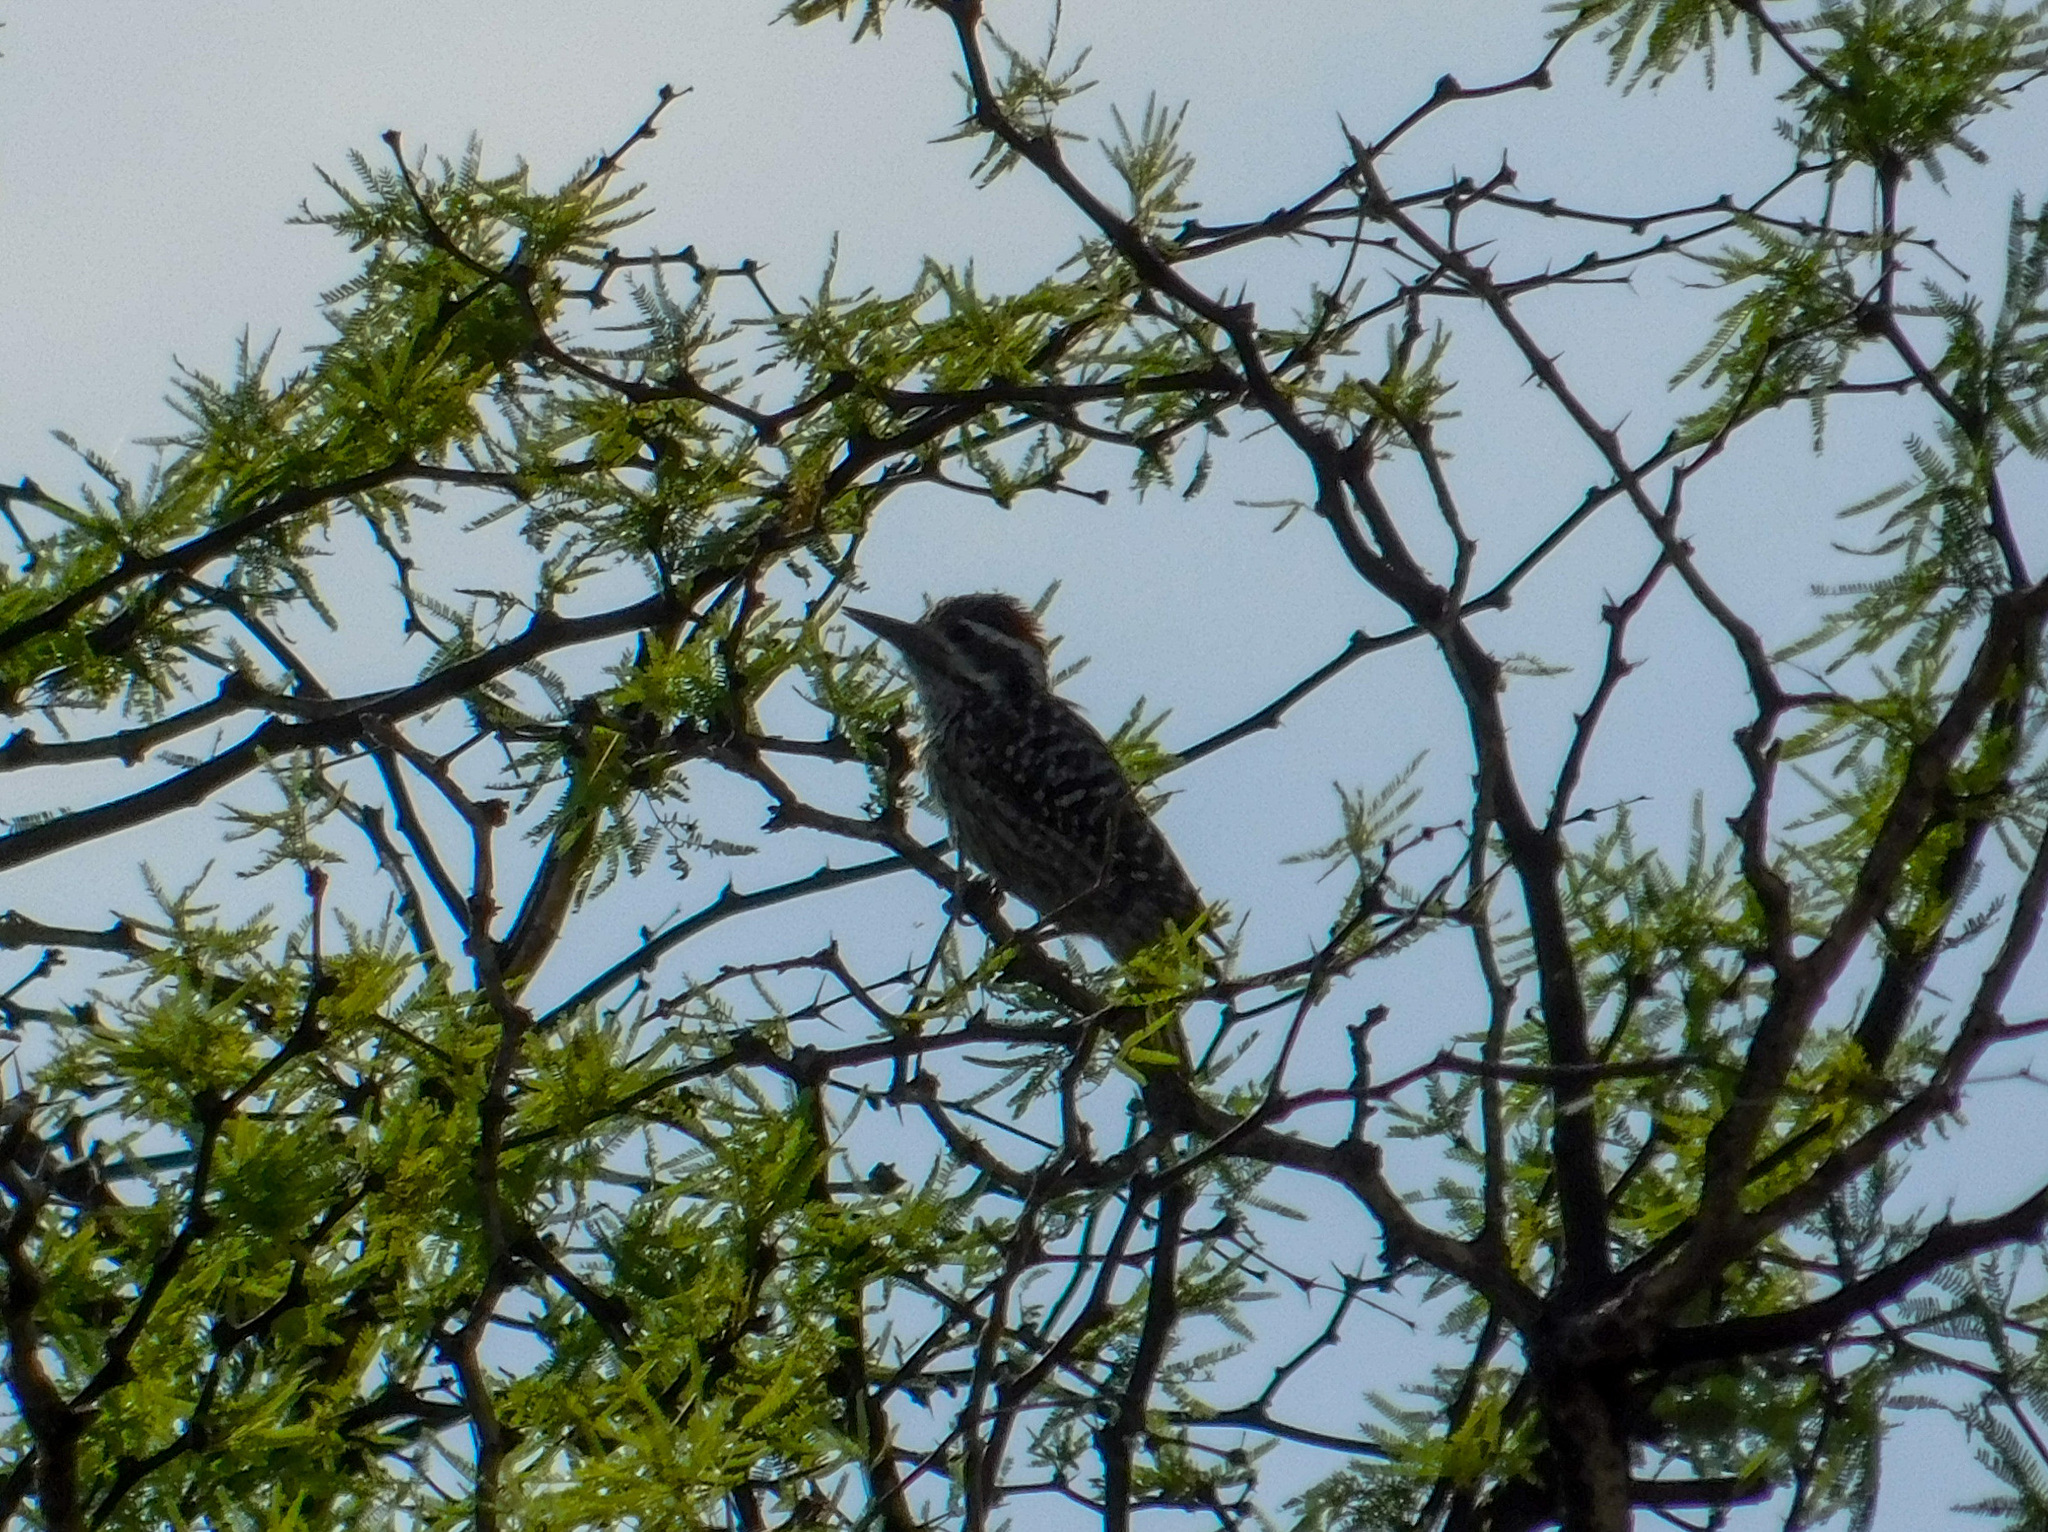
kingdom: Animalia
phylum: Chordata
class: Aves
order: Piciformes
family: Picidae
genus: Veniliornis
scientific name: Veniliornis mixtus
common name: Checkered woodpecker
